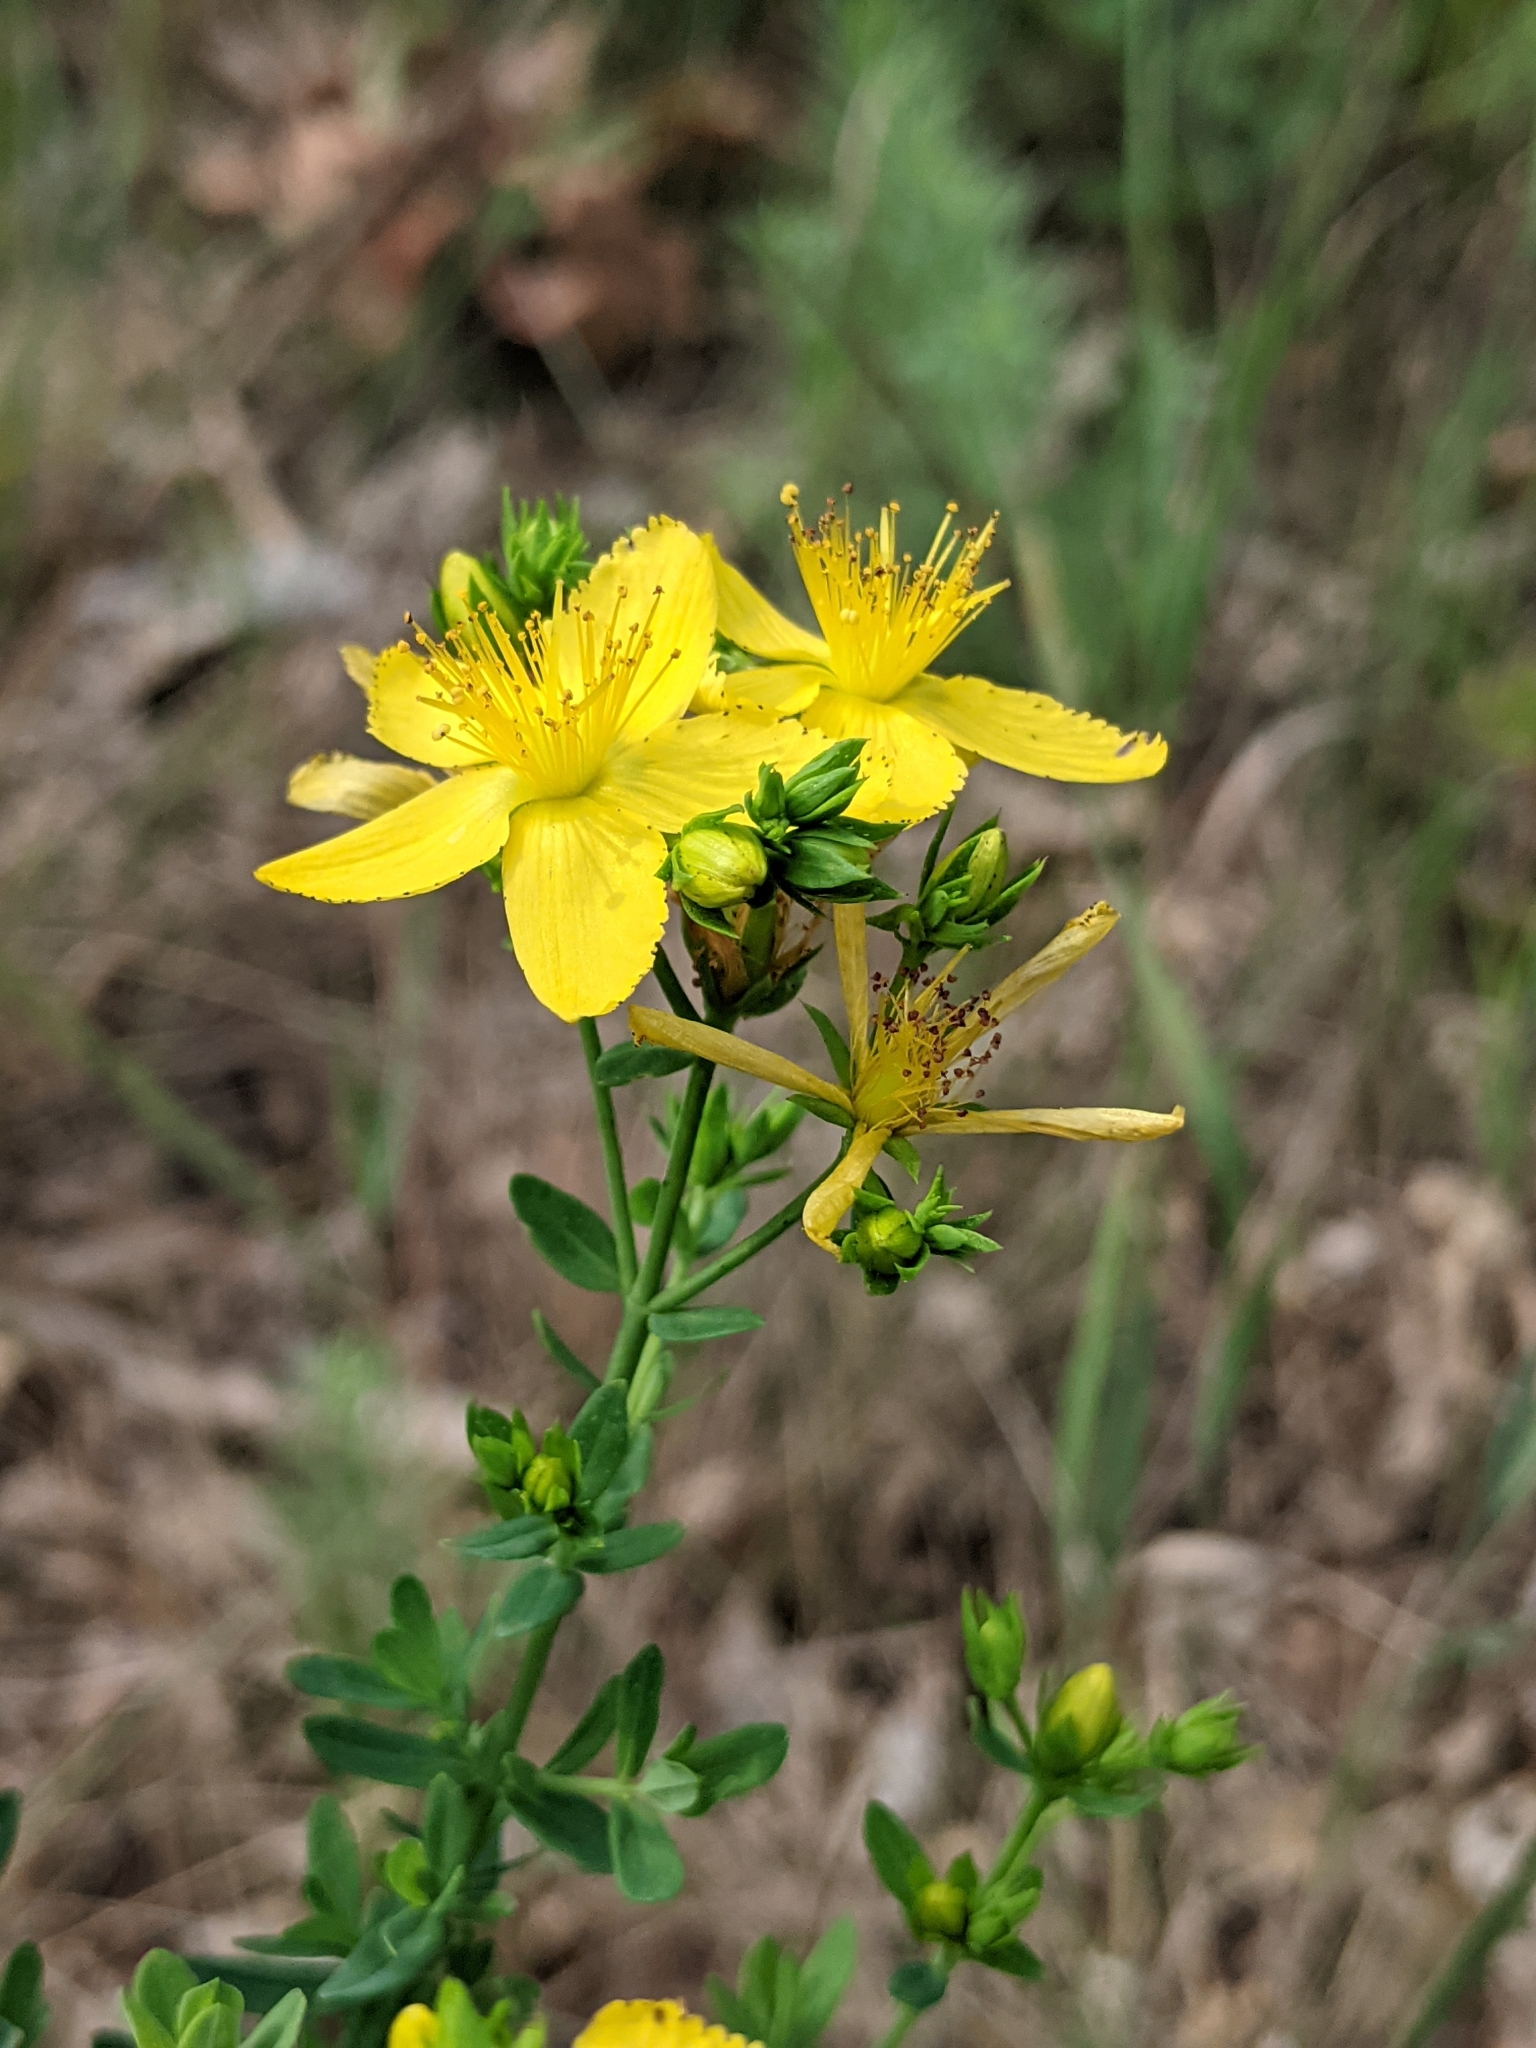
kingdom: Plantae
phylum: Tracheophyta
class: Magnoliopsida
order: Malpighiales
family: Hypericaceae
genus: Hypericum
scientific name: Hypericum perforatum
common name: Common st. johnswort
